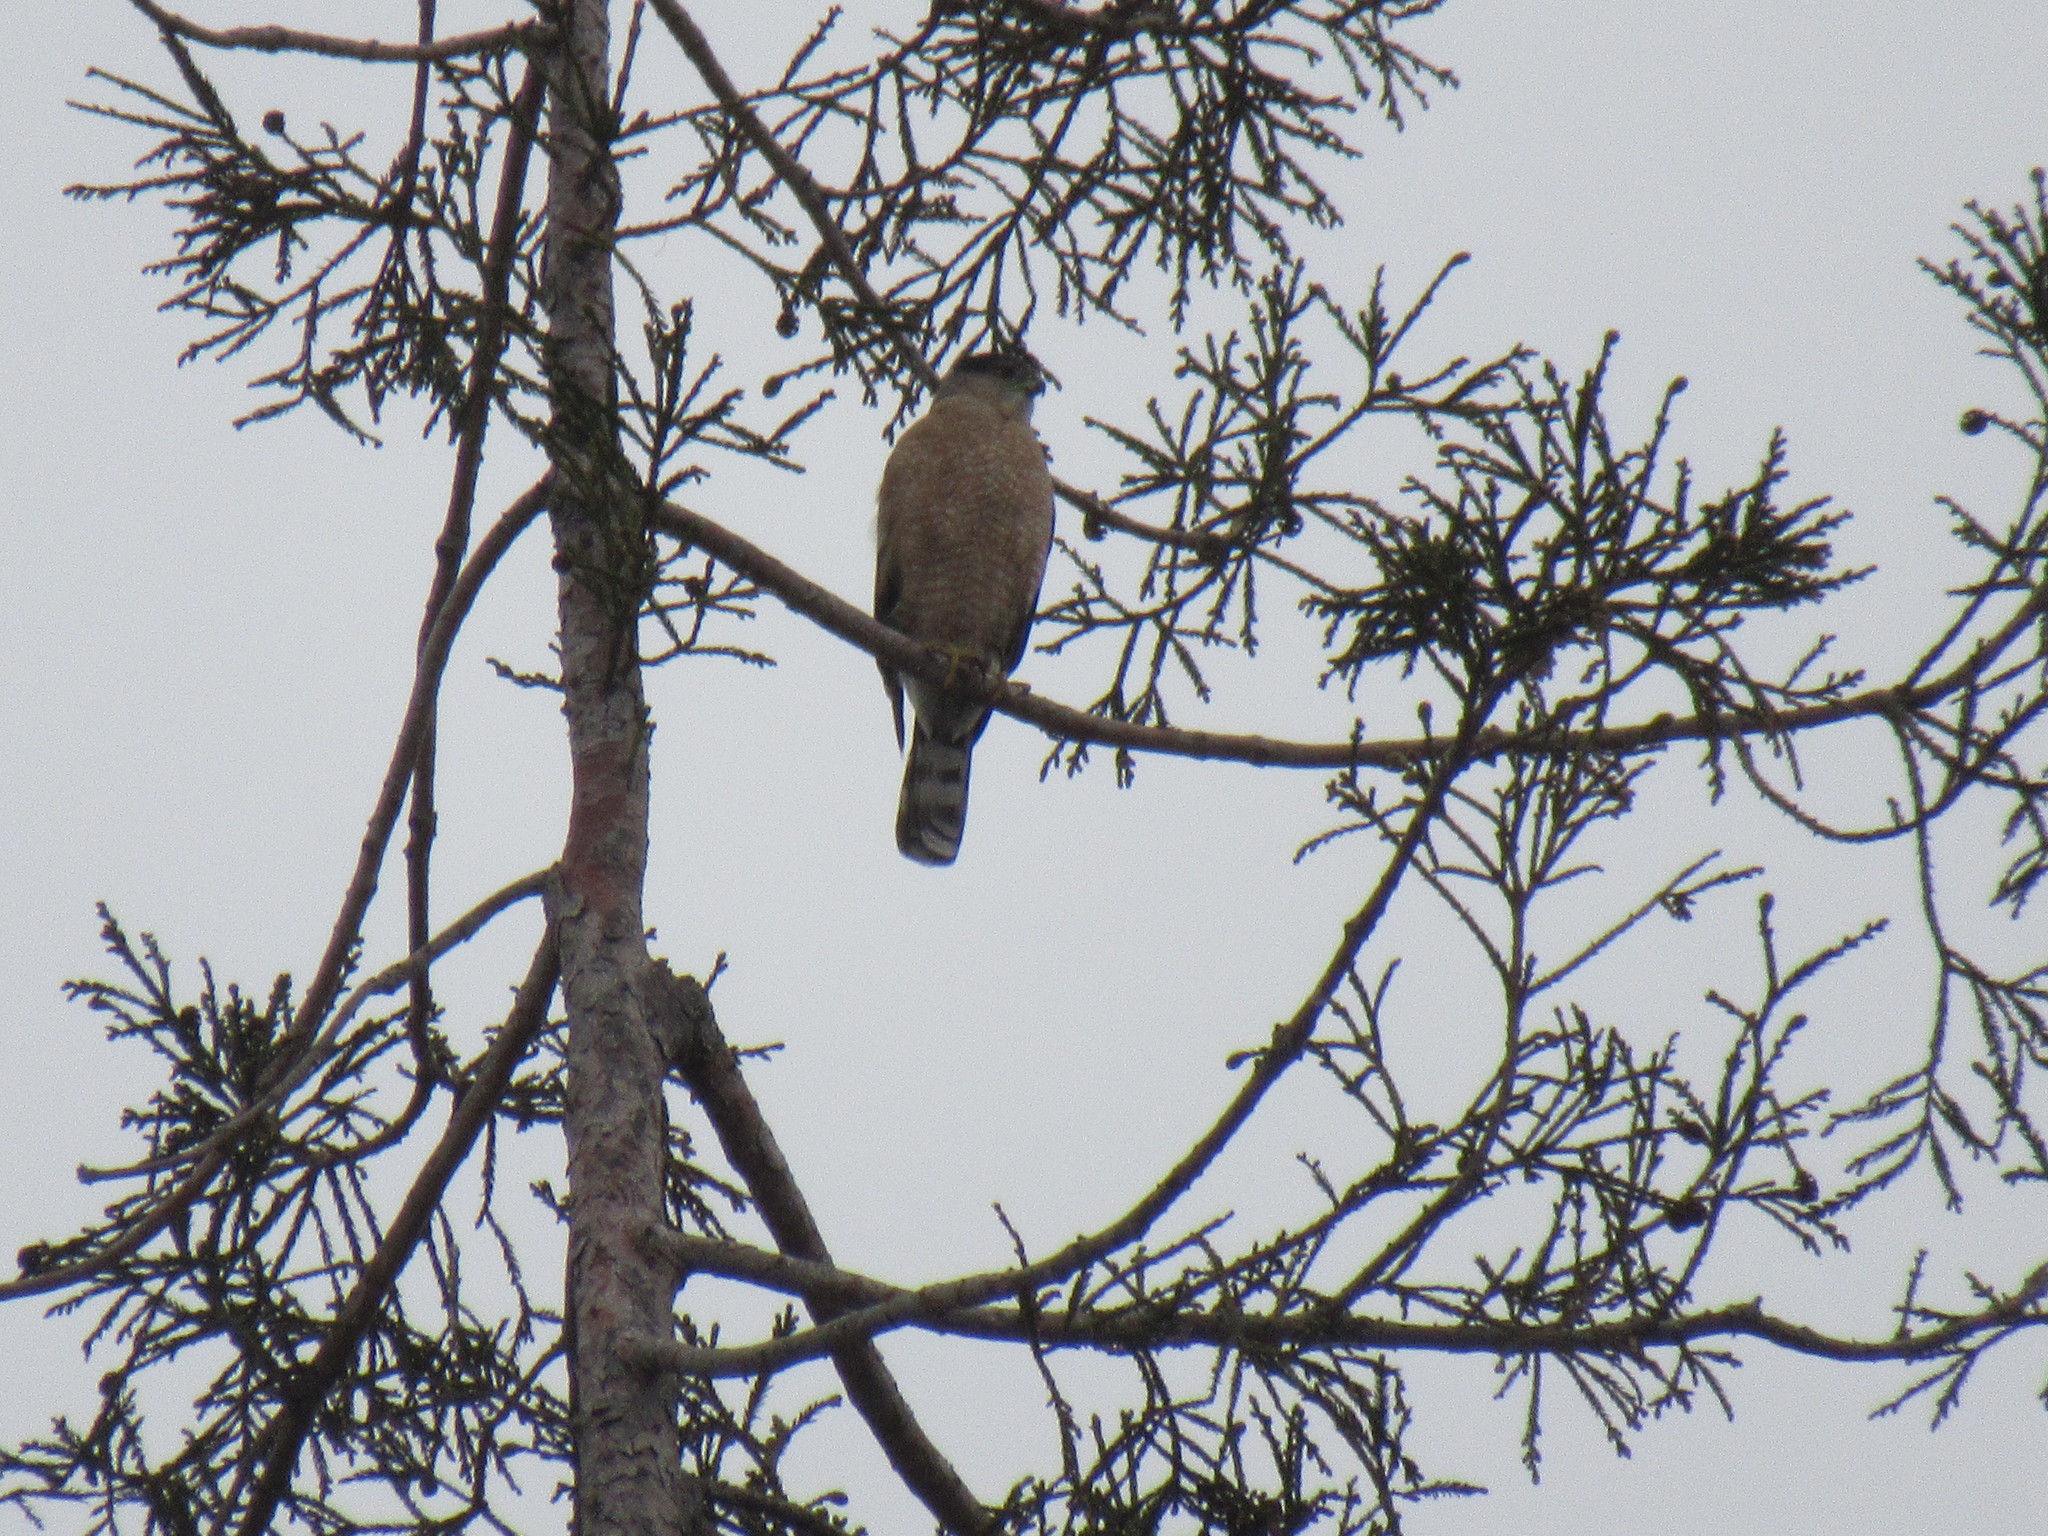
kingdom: Animalia
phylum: Chordata
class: Aves
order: Accipitriformes
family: Accipitridae
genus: Accipiter
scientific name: Accipiter cooperii
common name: Cooper's hawk
